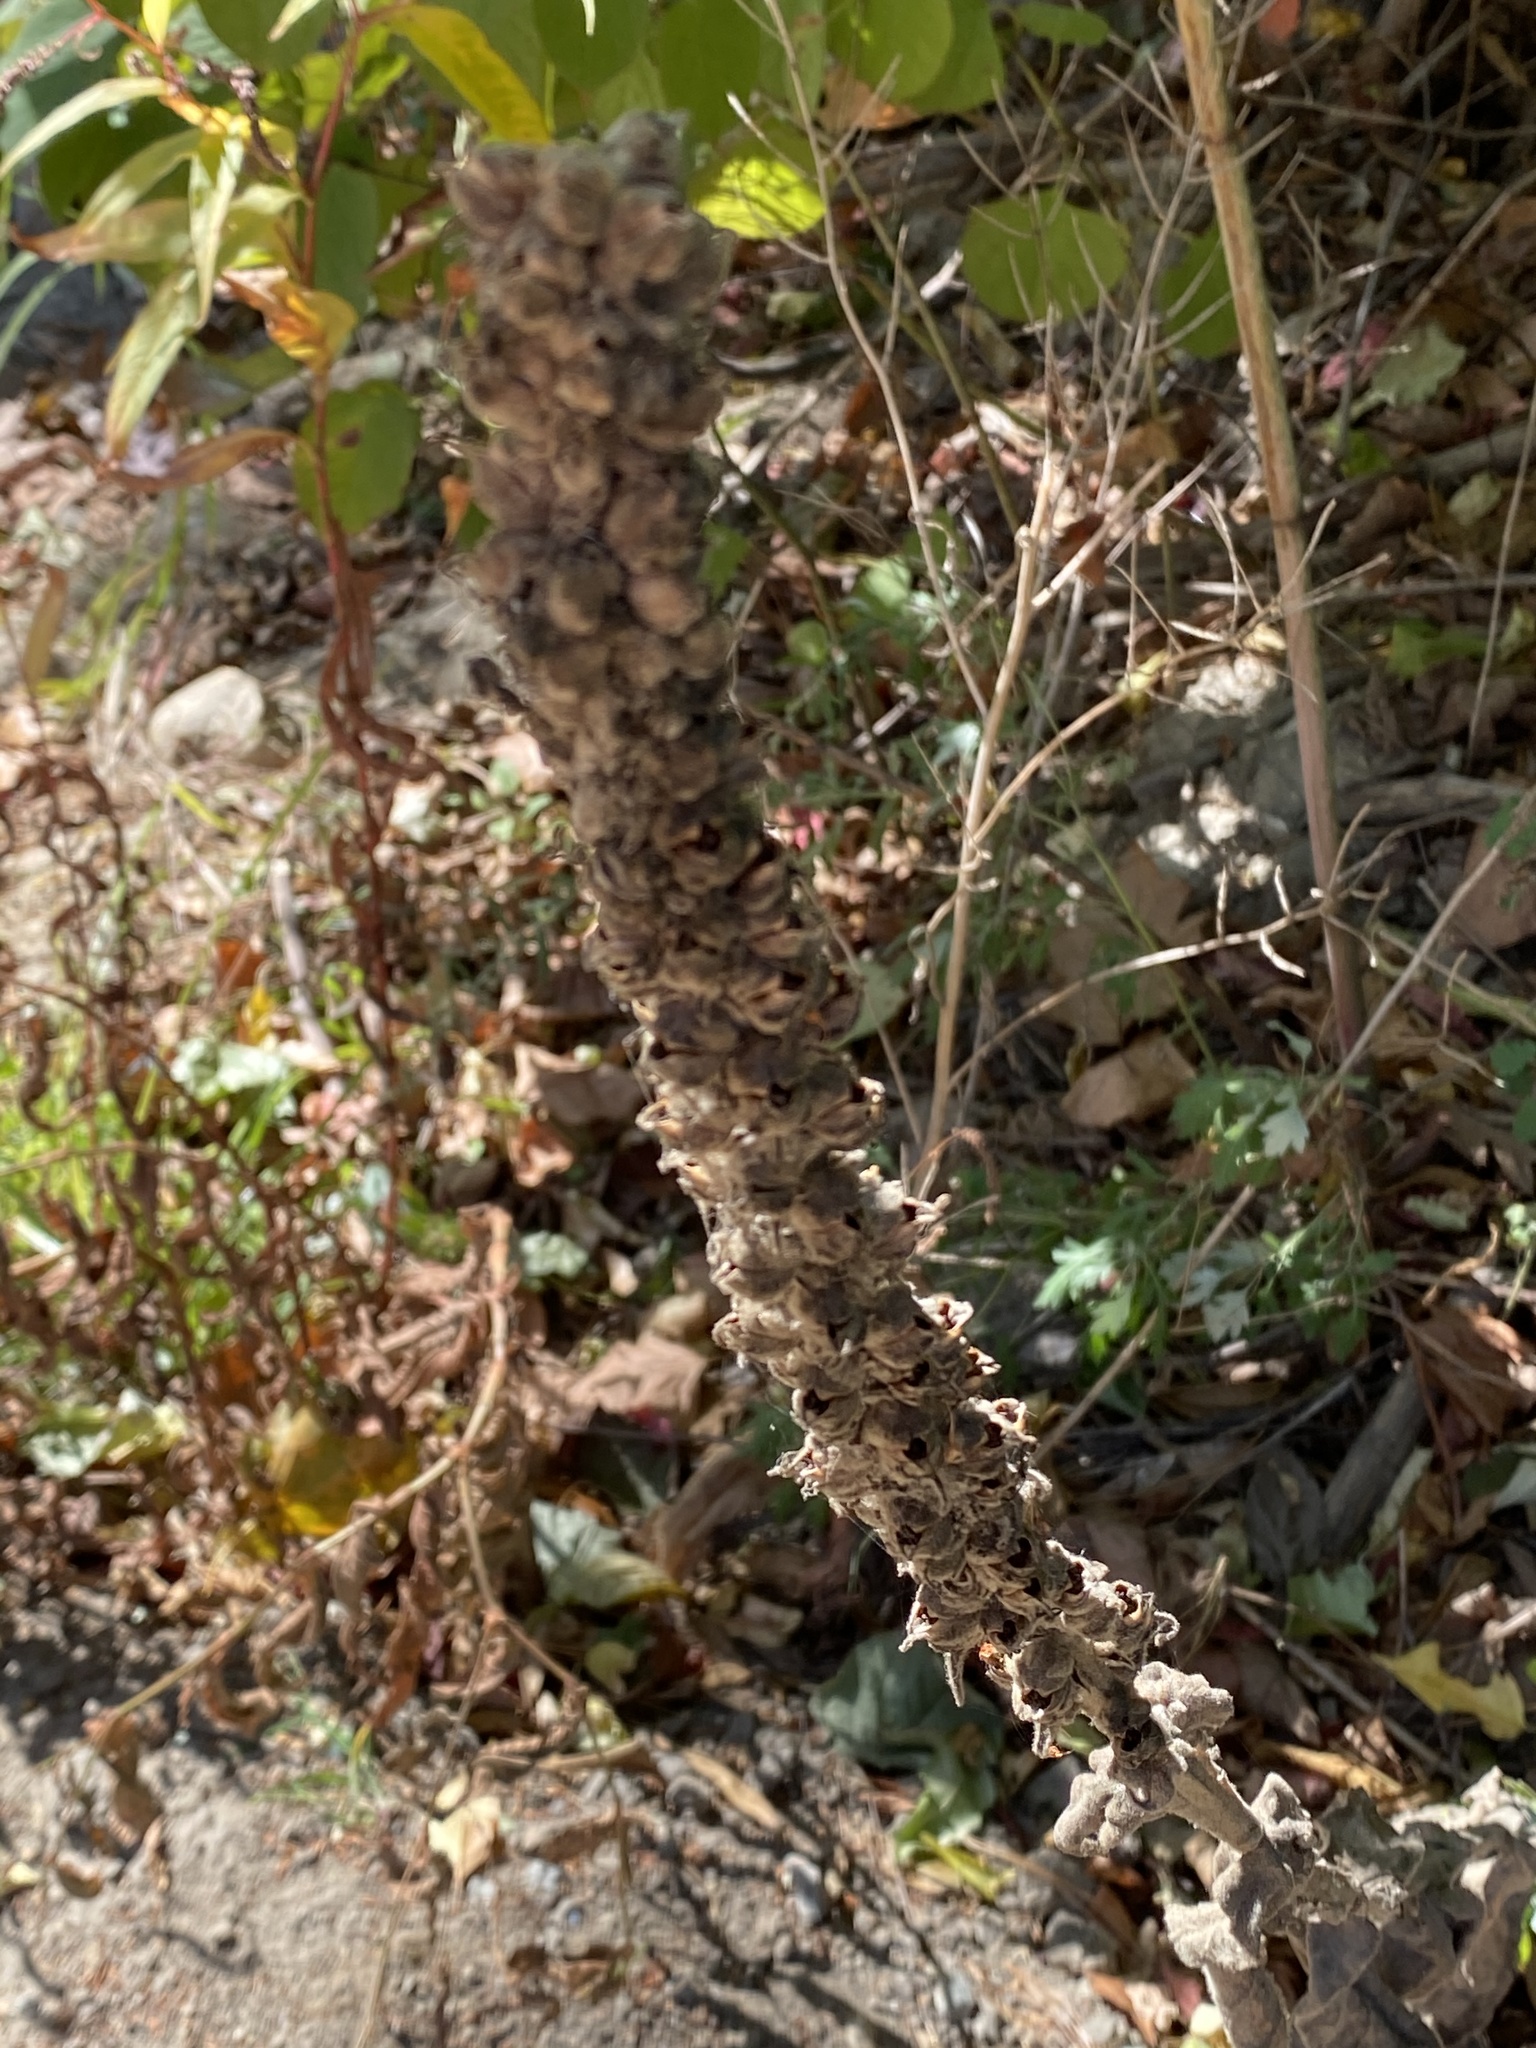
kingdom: Plantae
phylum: Tracheophyta
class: Magnoliopsida
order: Lamiales
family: Scrophulariaceae
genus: Verbascum
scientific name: Verbascum thapsus
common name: Common mullein
